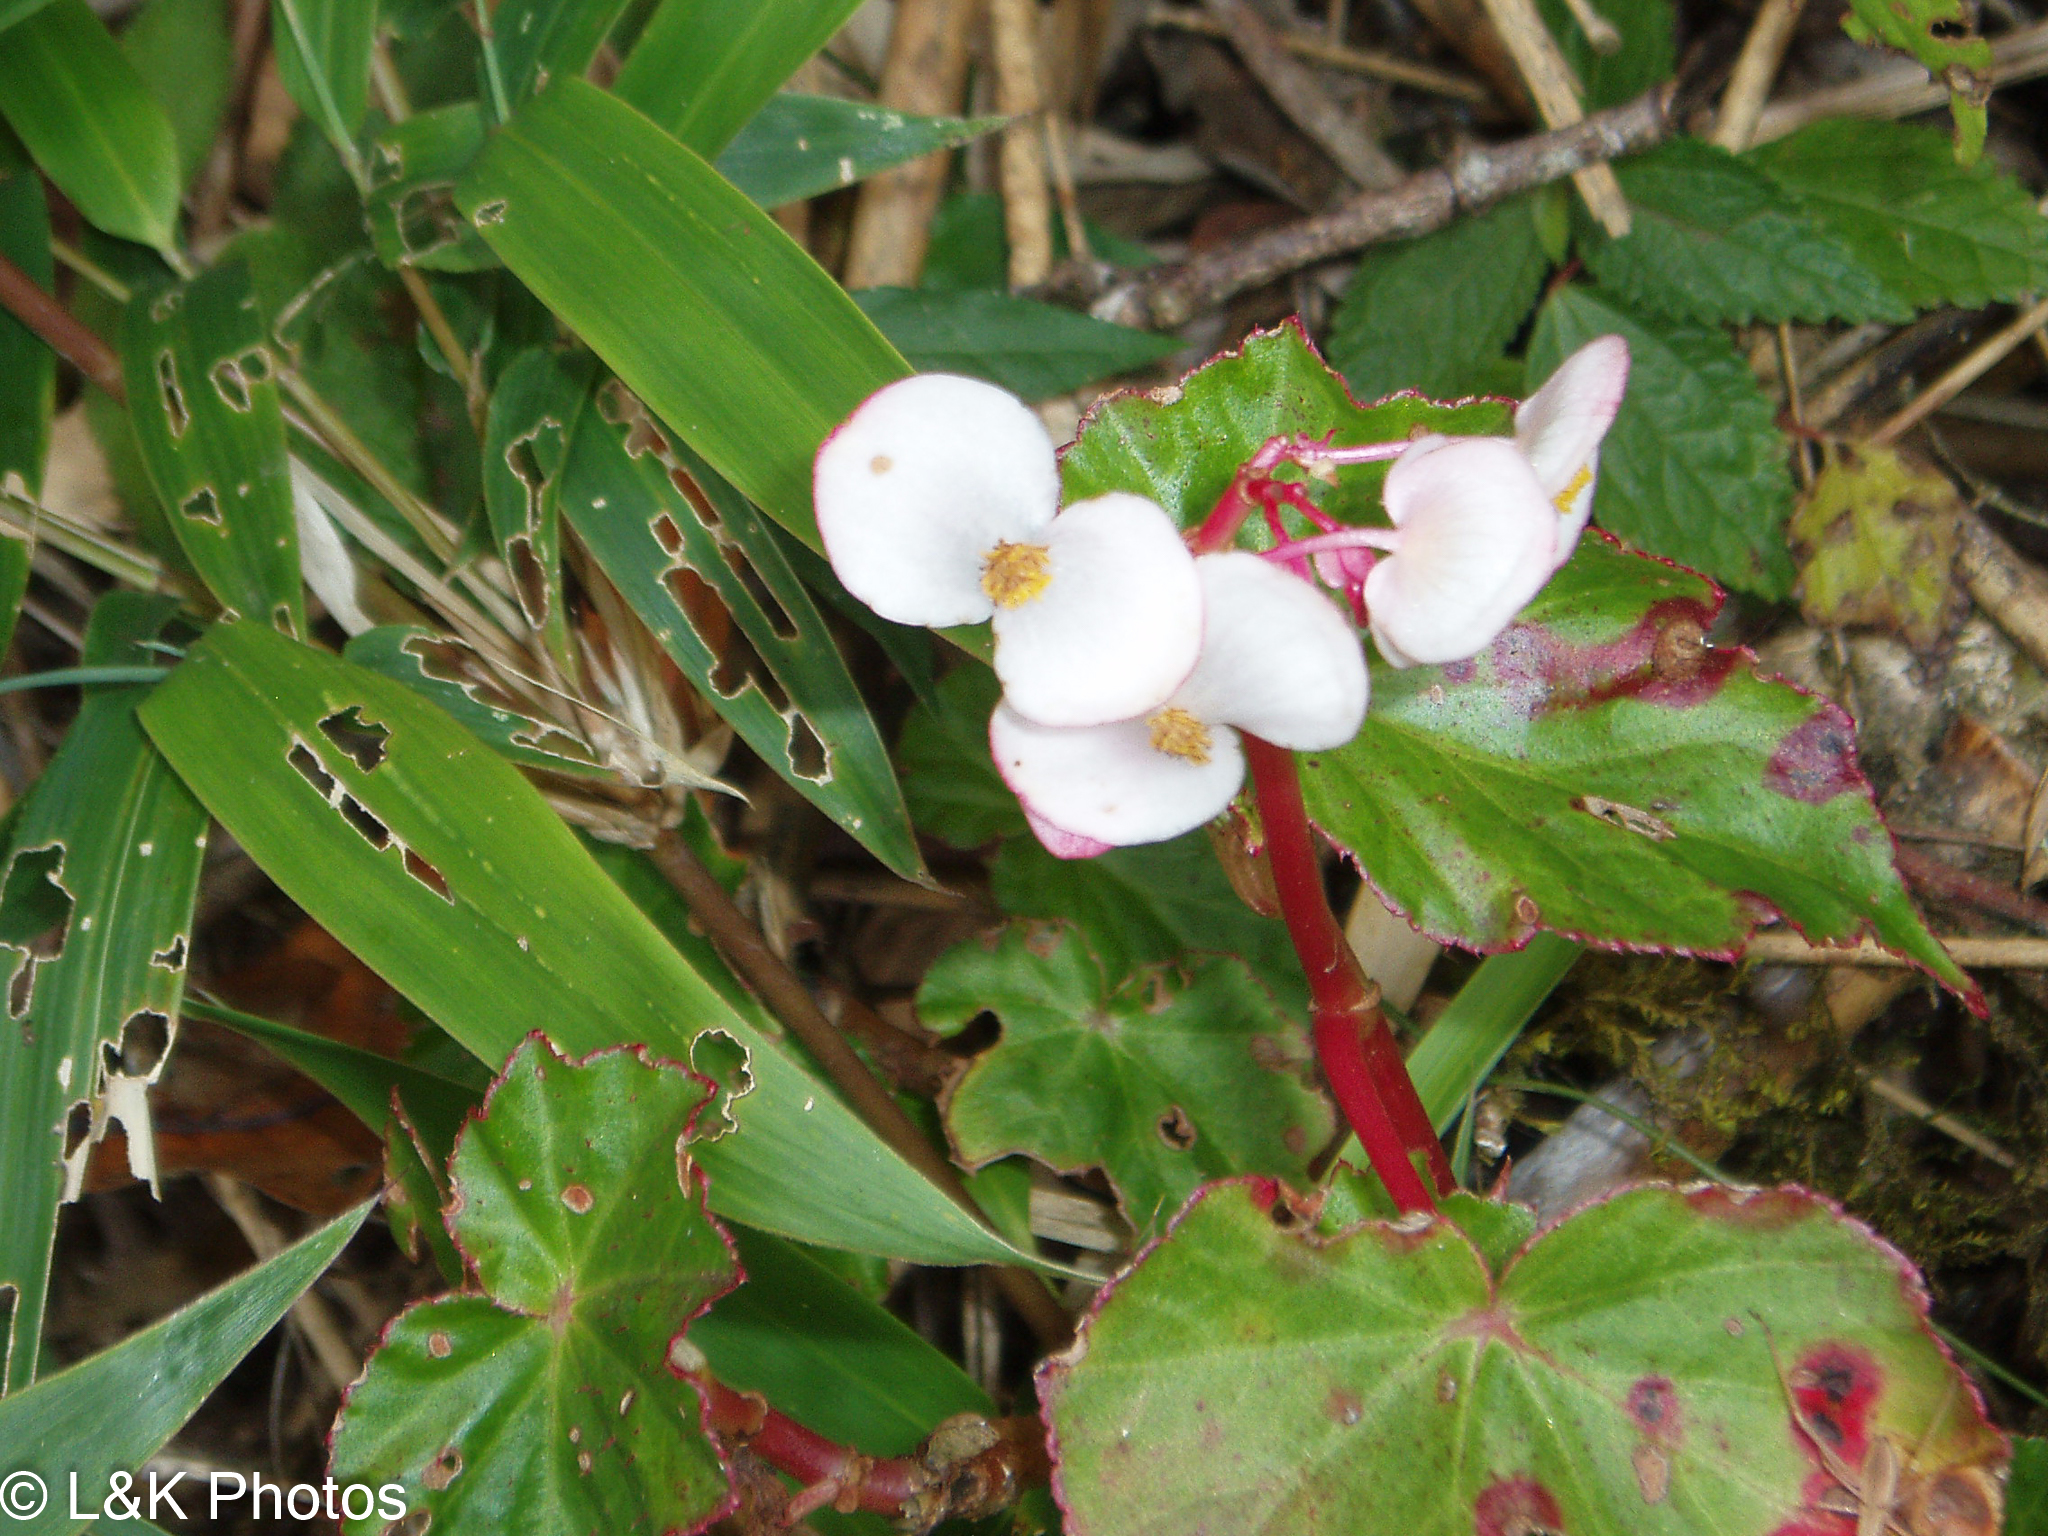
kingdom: Plantae
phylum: Tracheophyta
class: Magnoliopsida
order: Cucurbitales
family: Begoniaceae
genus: Begonia
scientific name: Begonia bracteosa
